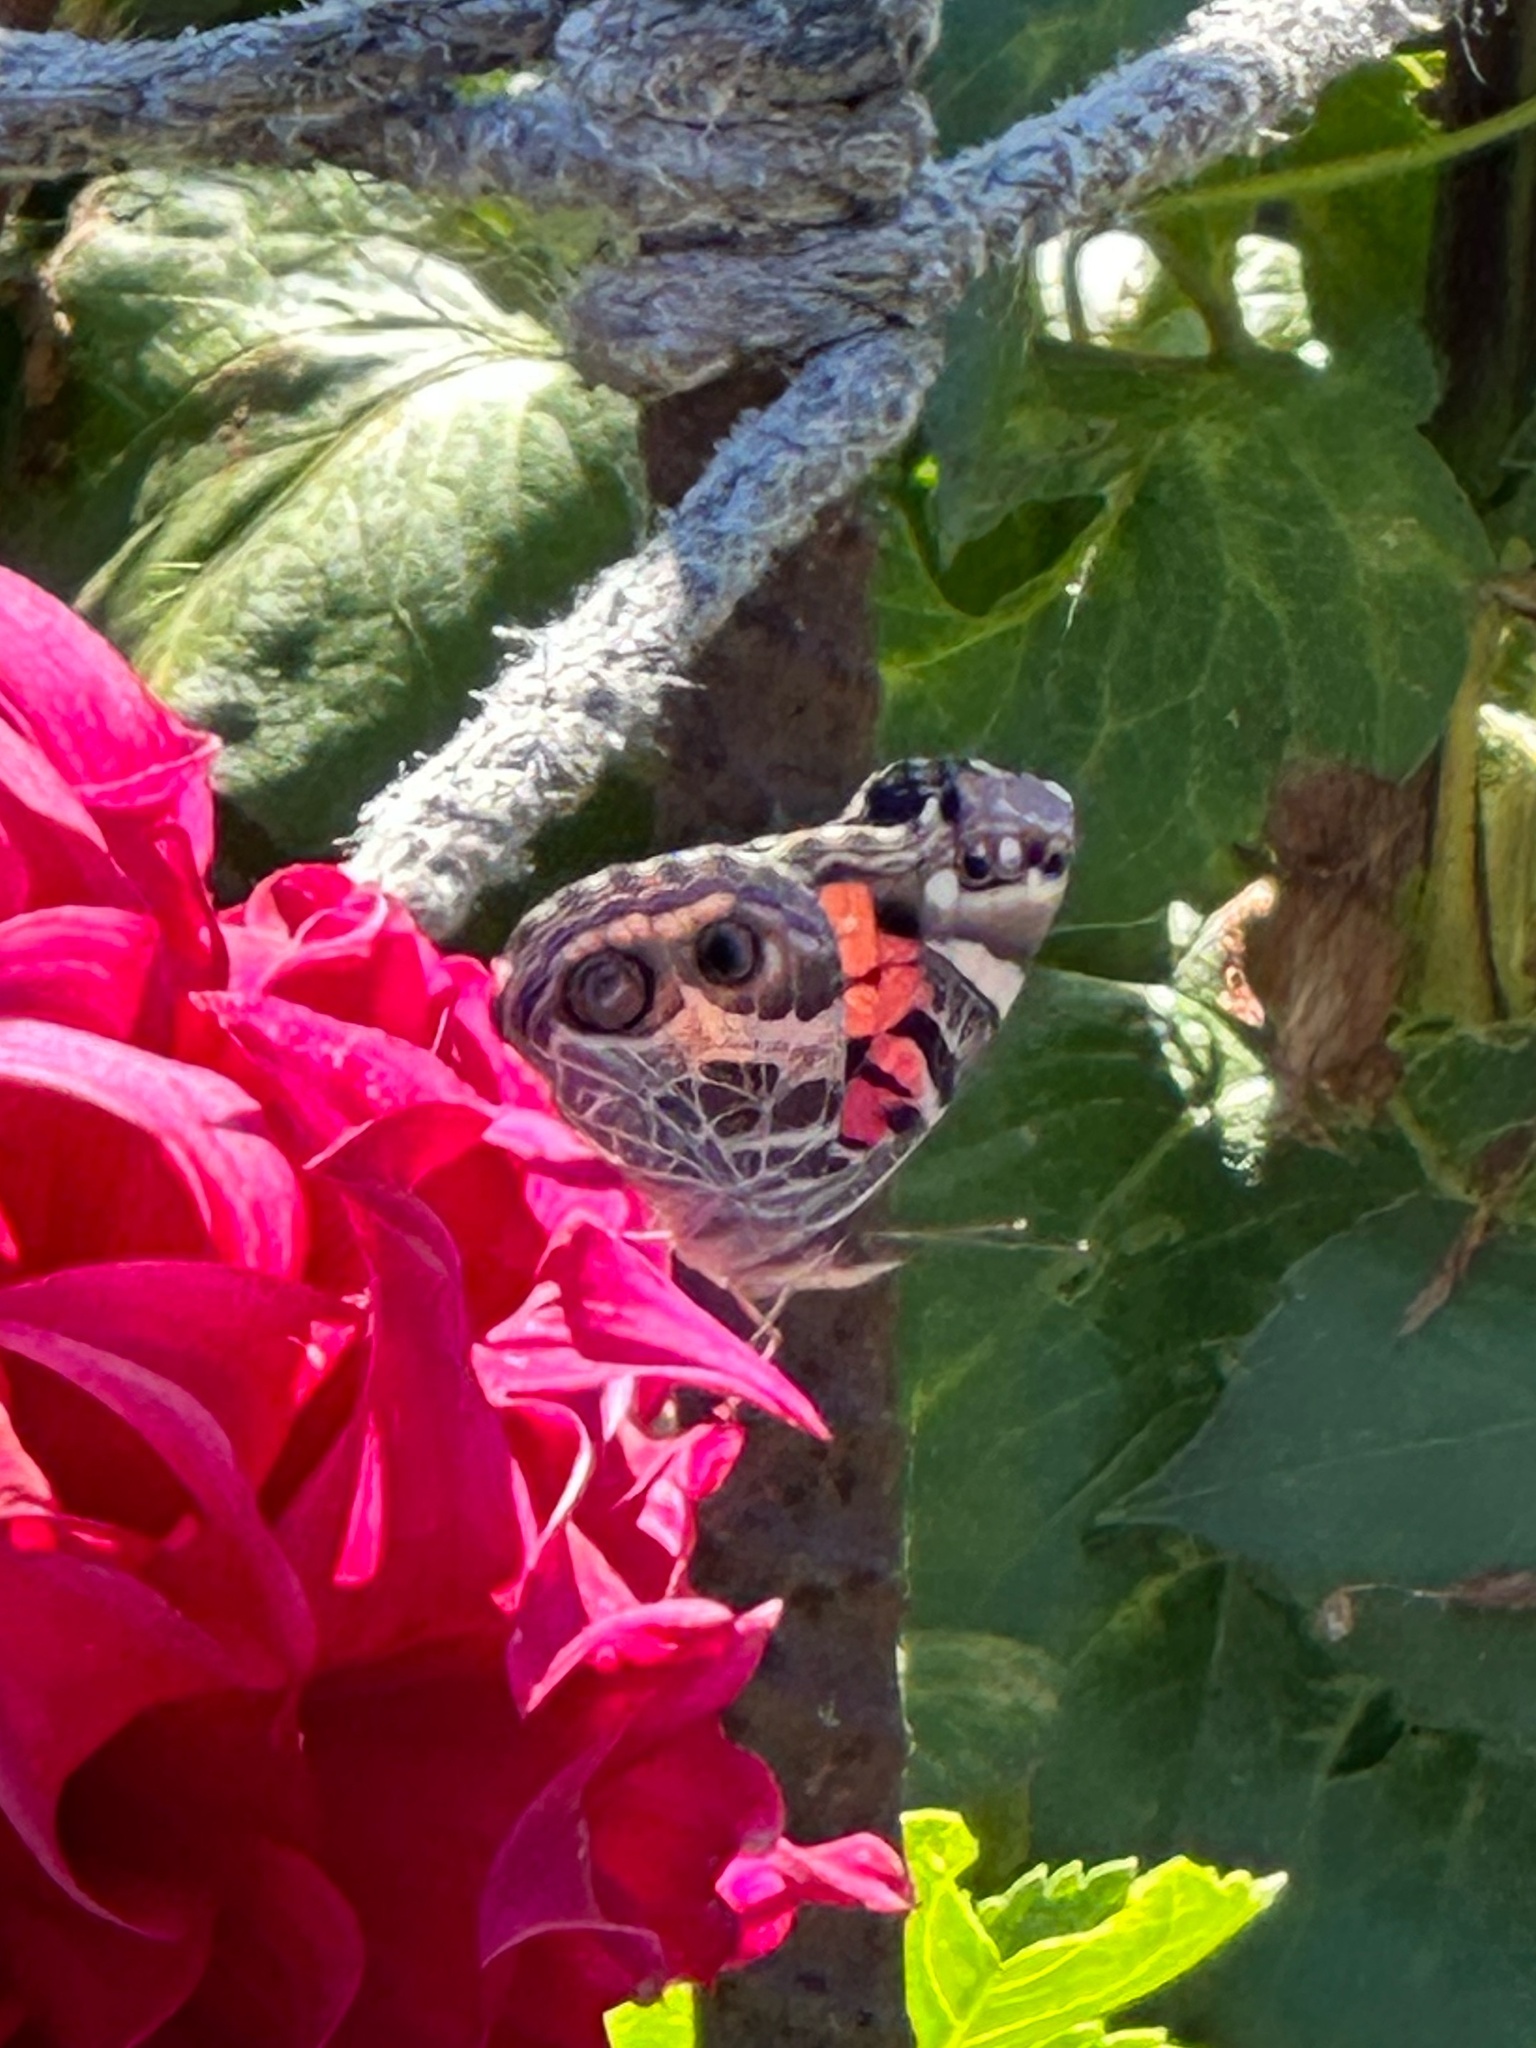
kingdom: Animalia
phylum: Arthropoda
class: Insecta
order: Lepidoptera
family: Nymphalidae
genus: Vanessa
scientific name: Vanessa virginiensis
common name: American lady
